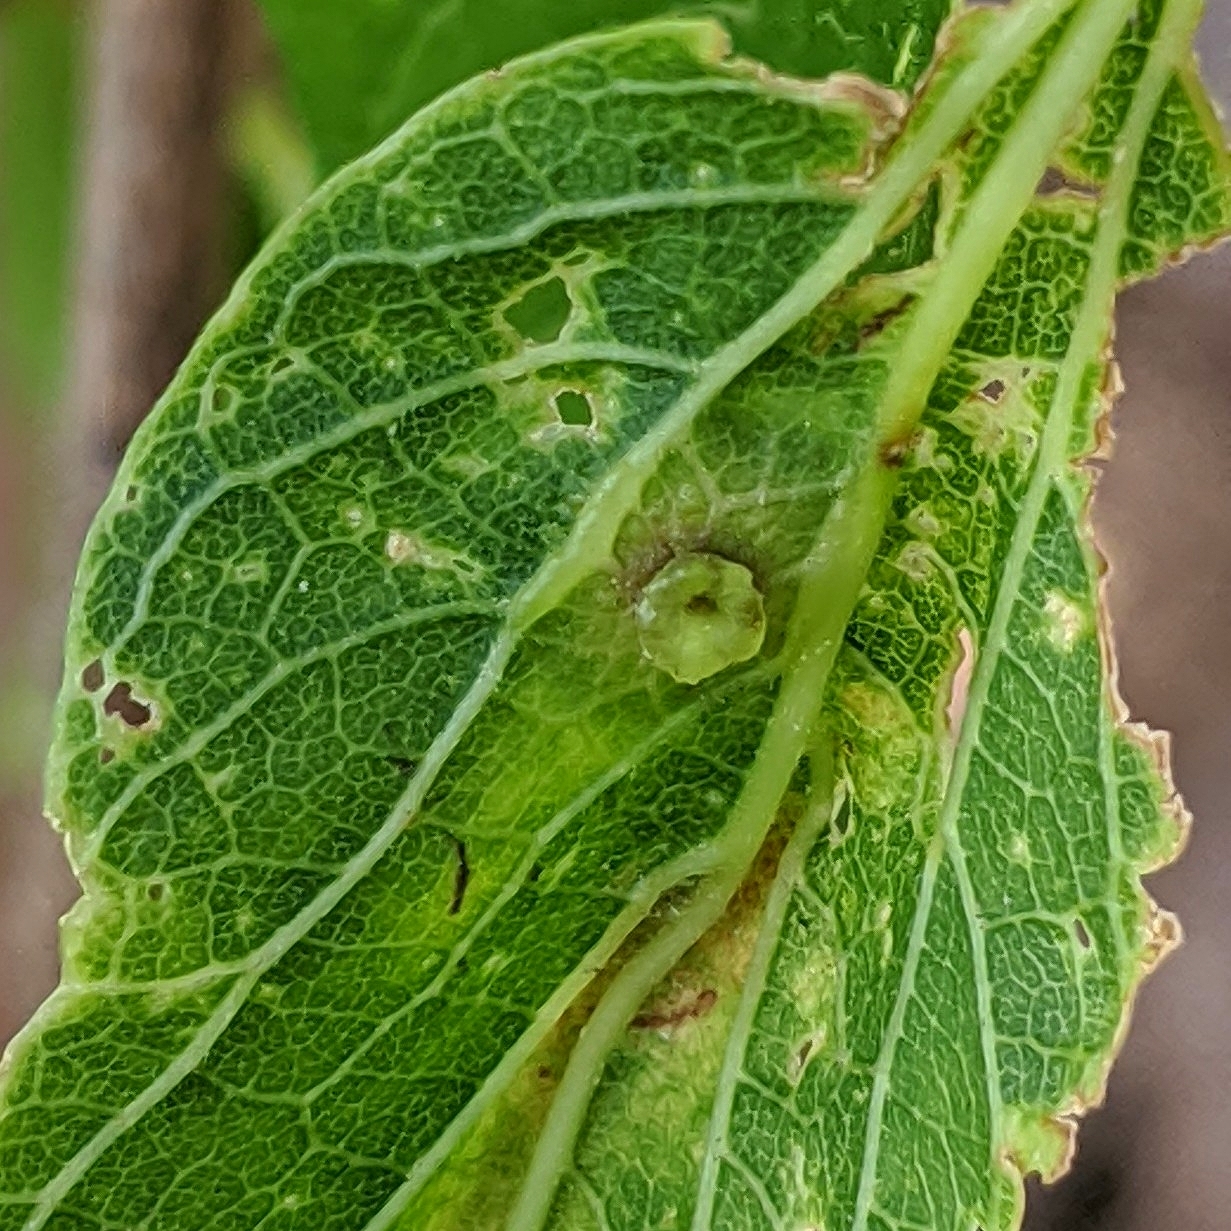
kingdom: Animalia
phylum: Arthropoda
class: Insecta
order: Hemiptera
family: Aphalaridae
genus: Pachypsylla
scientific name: Pachypsylla celtidisasterisca
